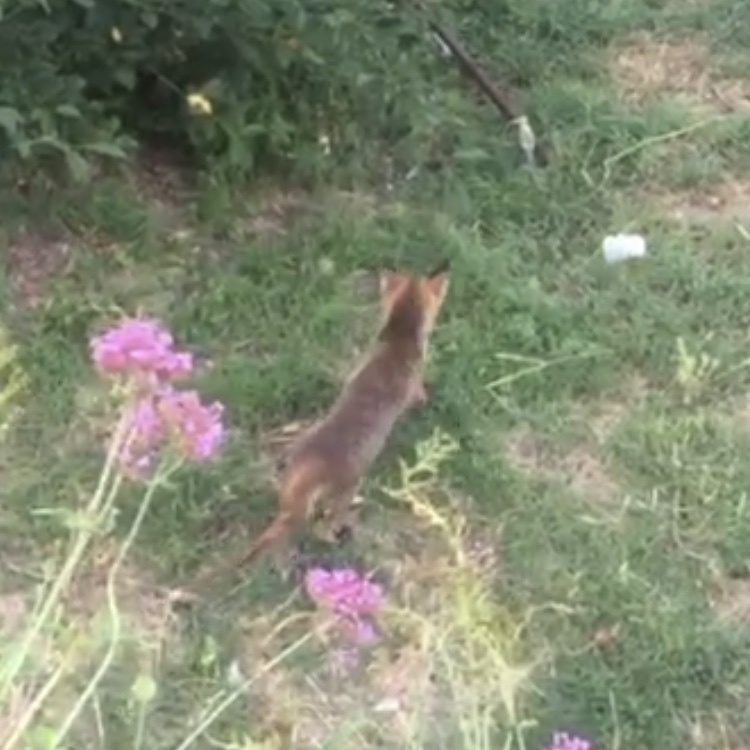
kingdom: Animalia
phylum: Chordata
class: Mammalia
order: Carnivora
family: Canidae
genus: Vulpes
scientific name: Vulpes vulpes
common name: Red fox
